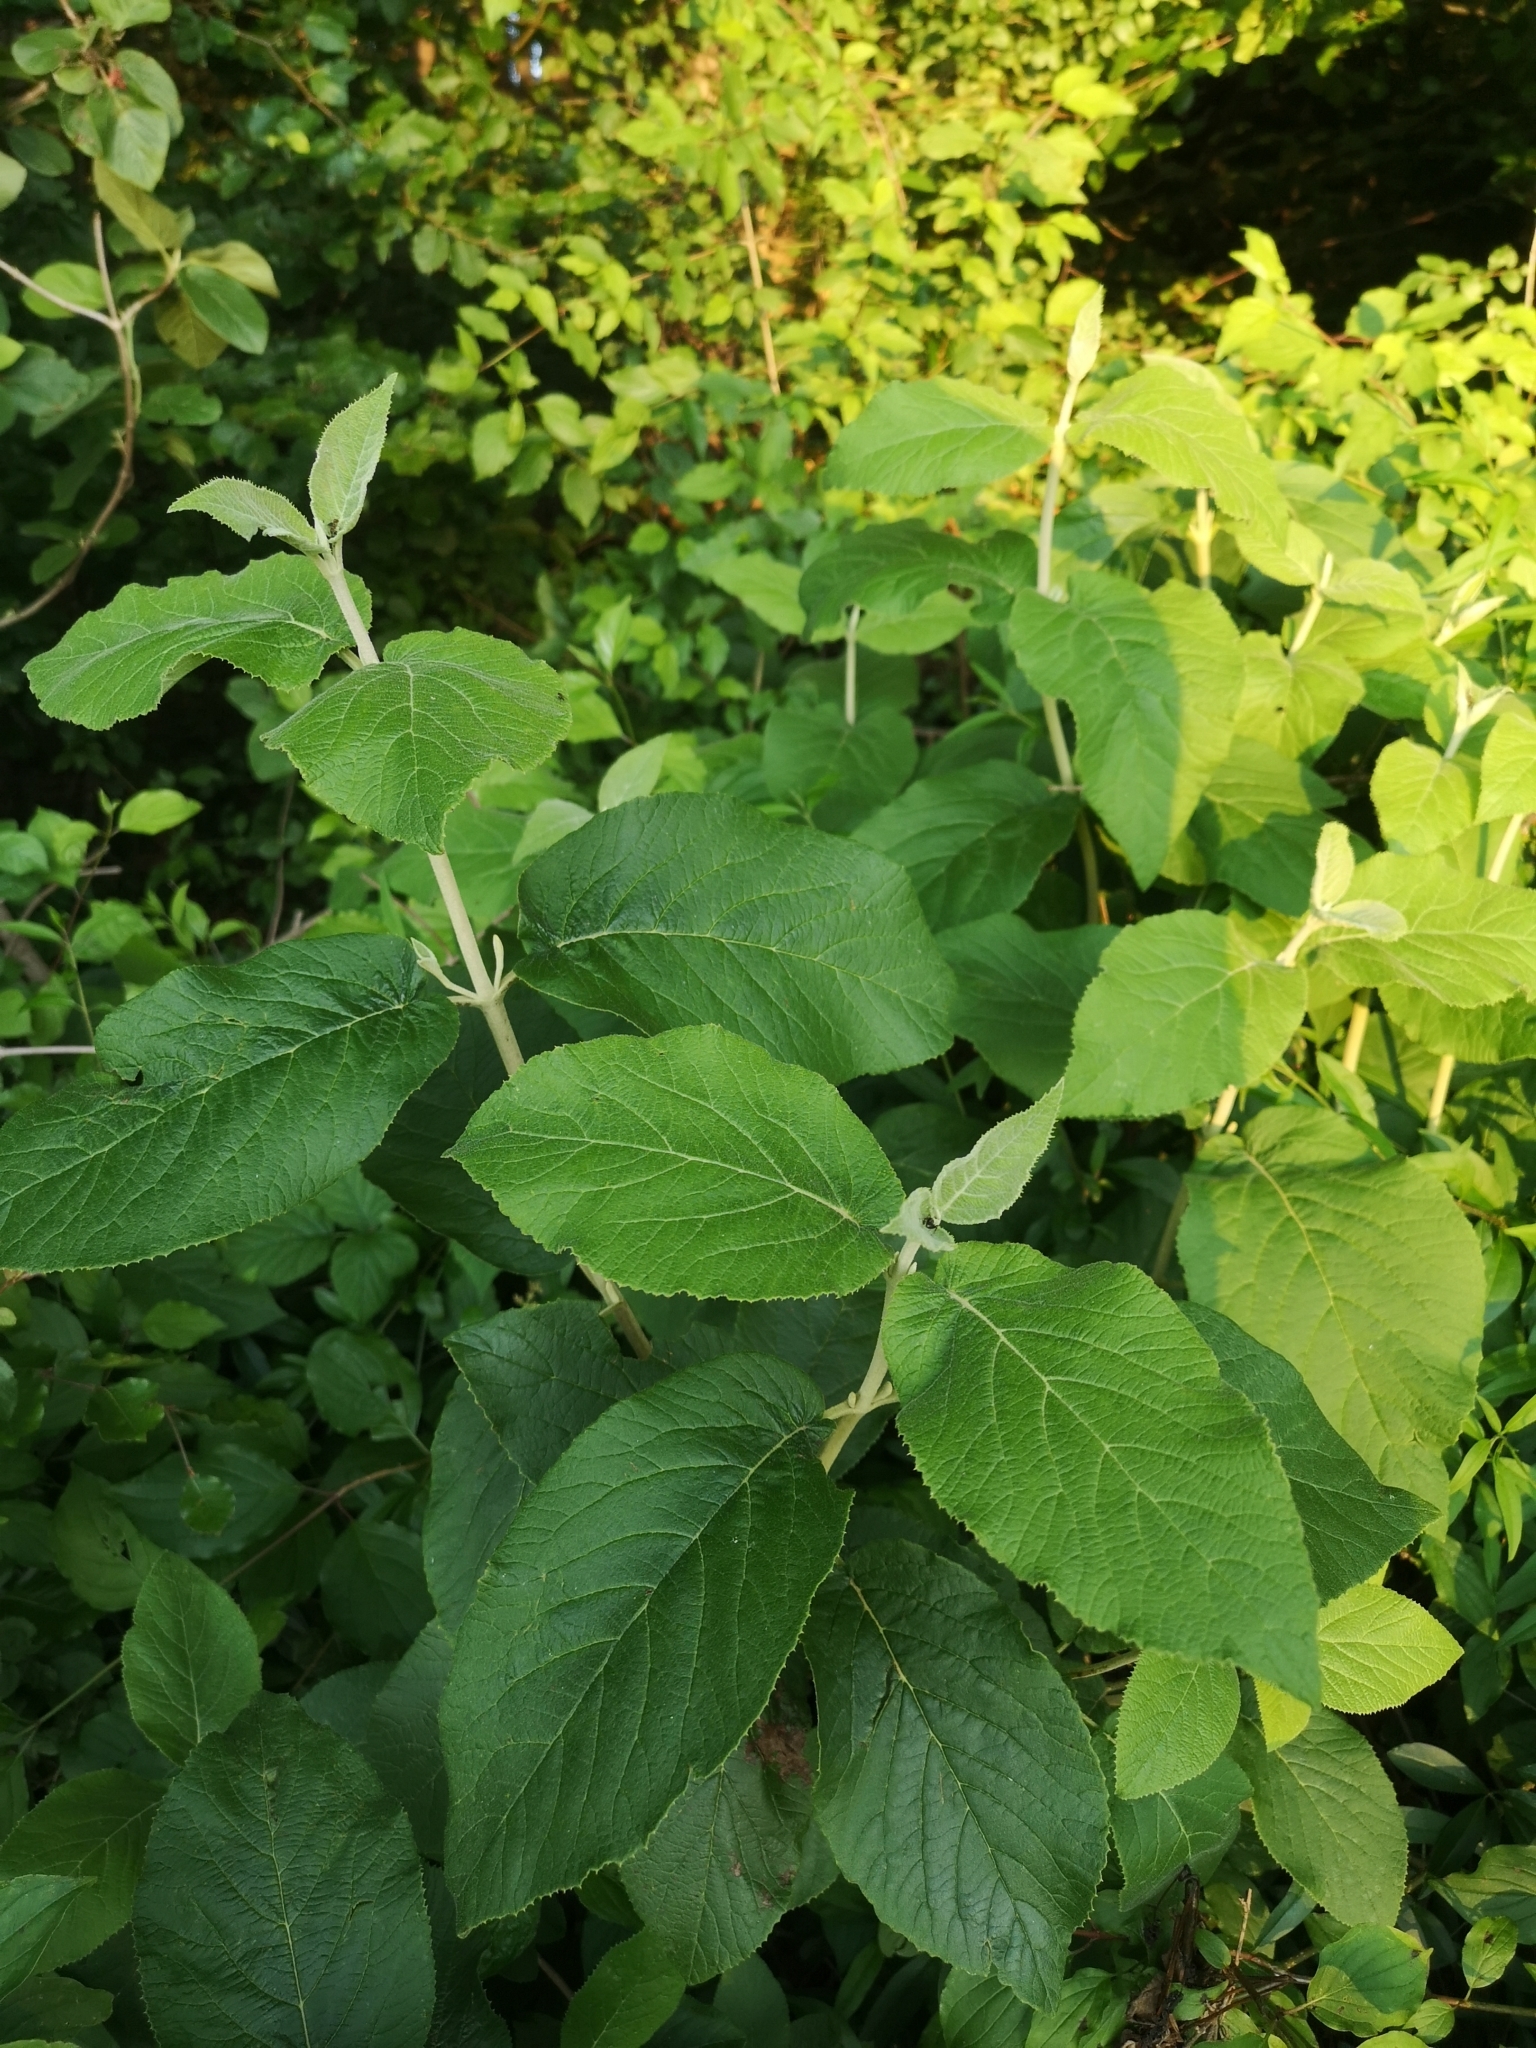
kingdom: Plantae
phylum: Tracheophyta
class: Magnoliopsida
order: Dipsacales
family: Viburnaceae
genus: Viburnum
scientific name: Viburnum lantana
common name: Wayfaring tree
